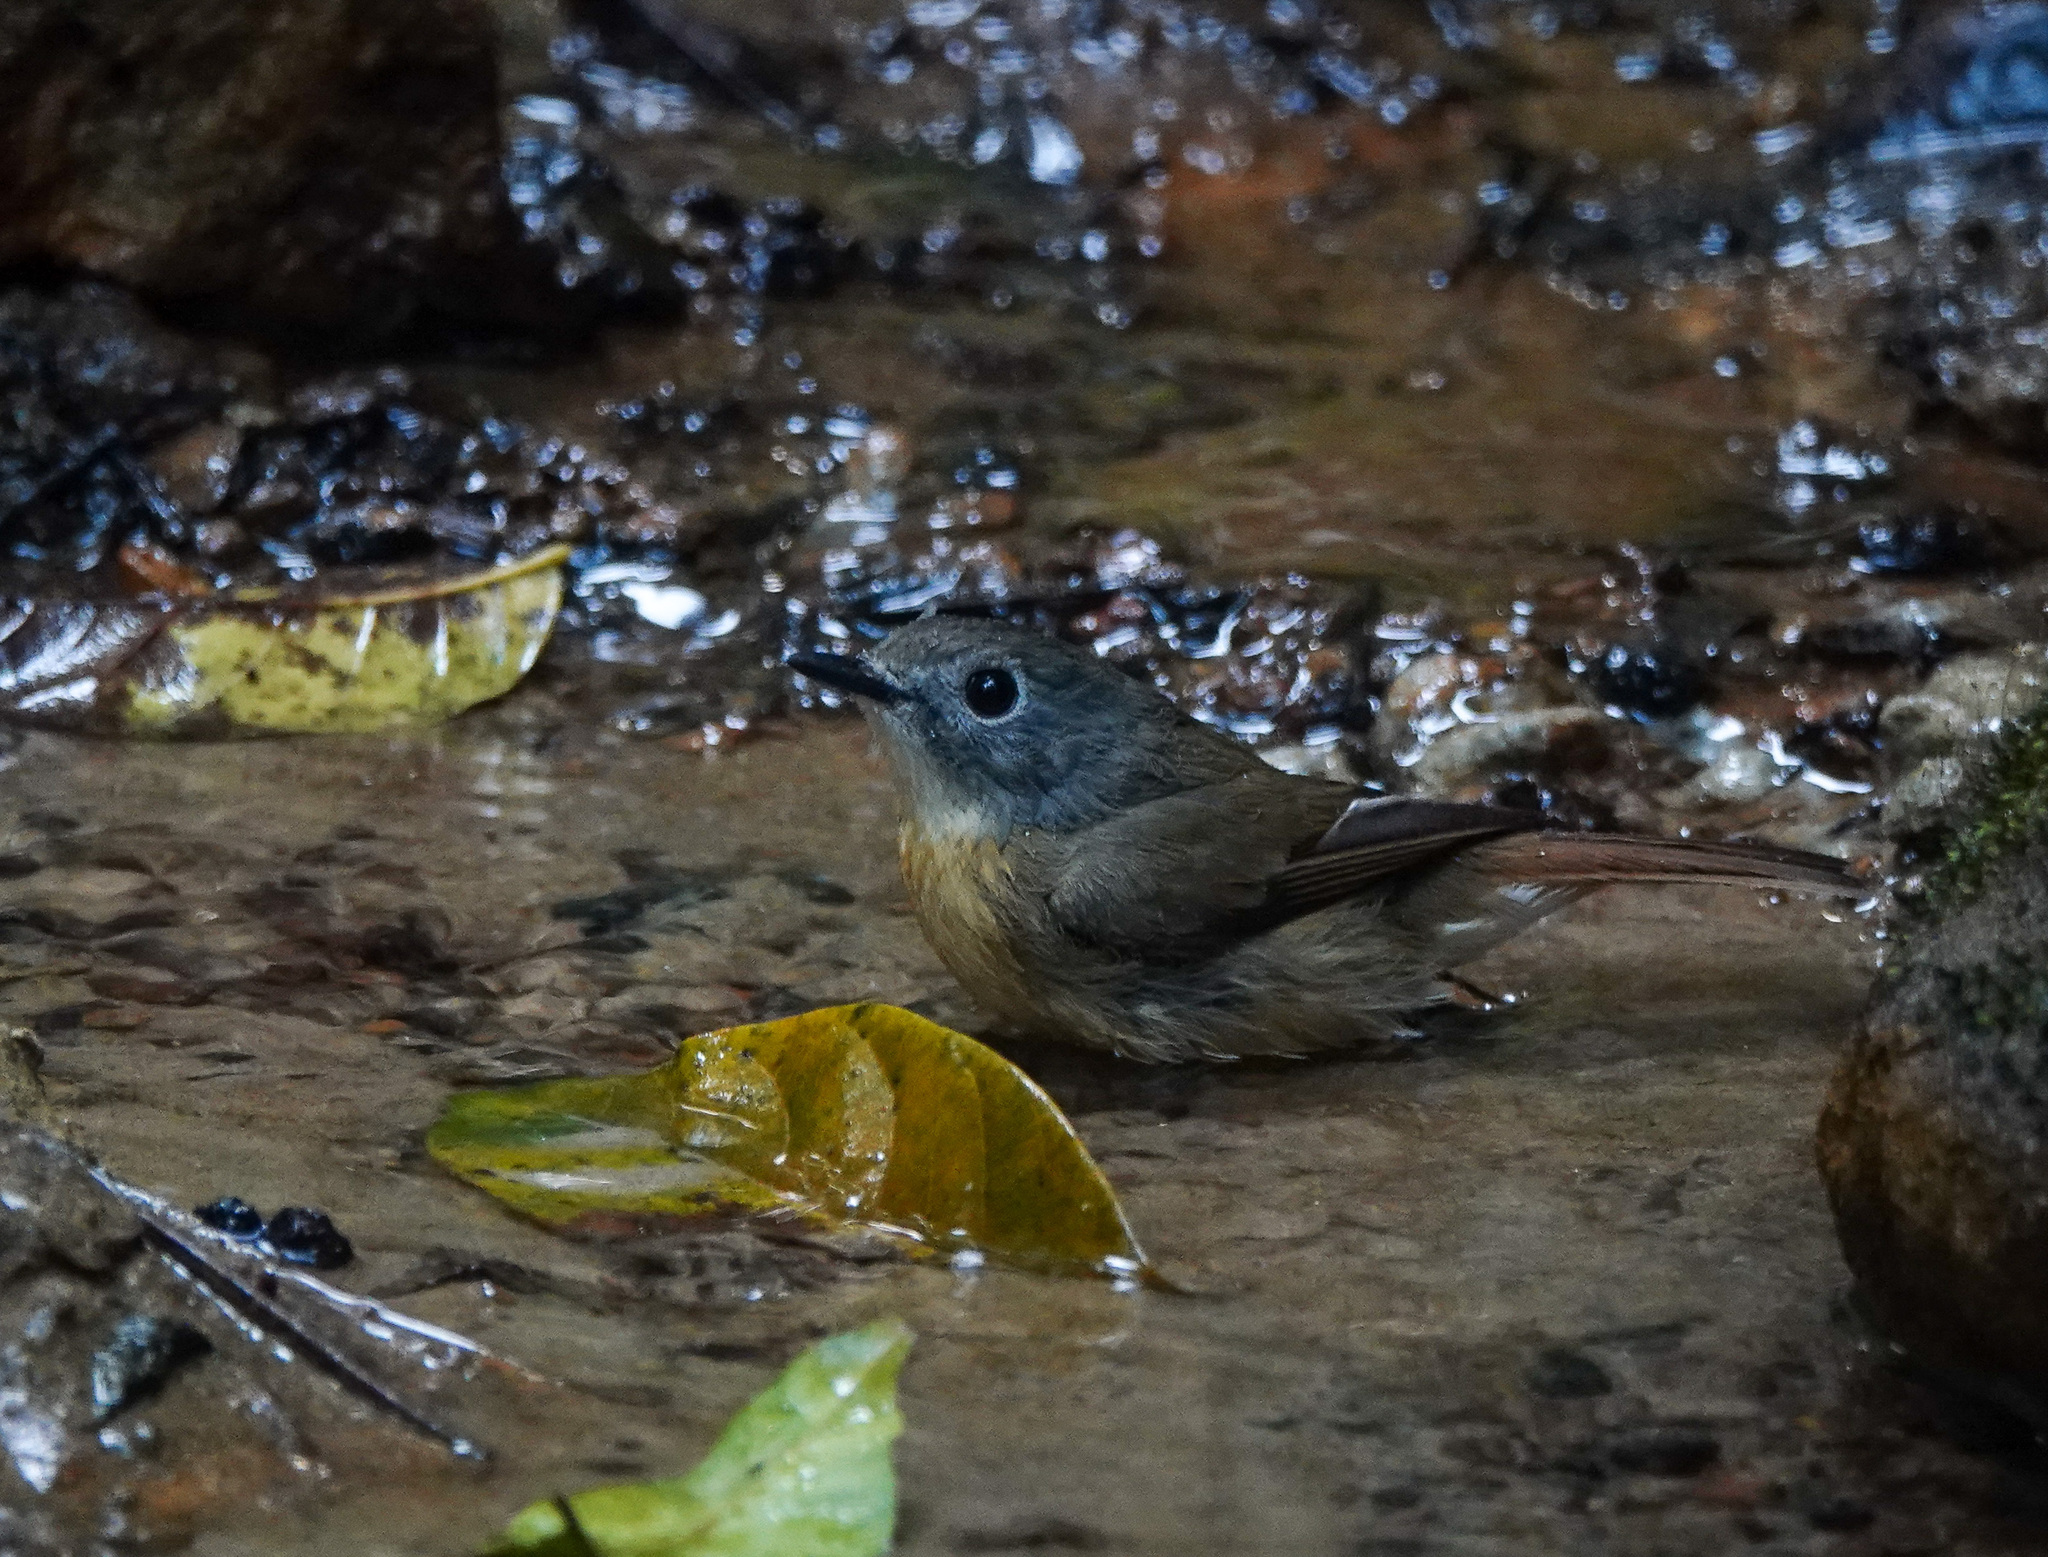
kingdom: Animalia
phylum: Chordata
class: Aves
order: Passeriformes
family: Muscicapidae
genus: Cyornis
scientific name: Cyornis poliogenys
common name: Pale-chinned blue flycatcher
